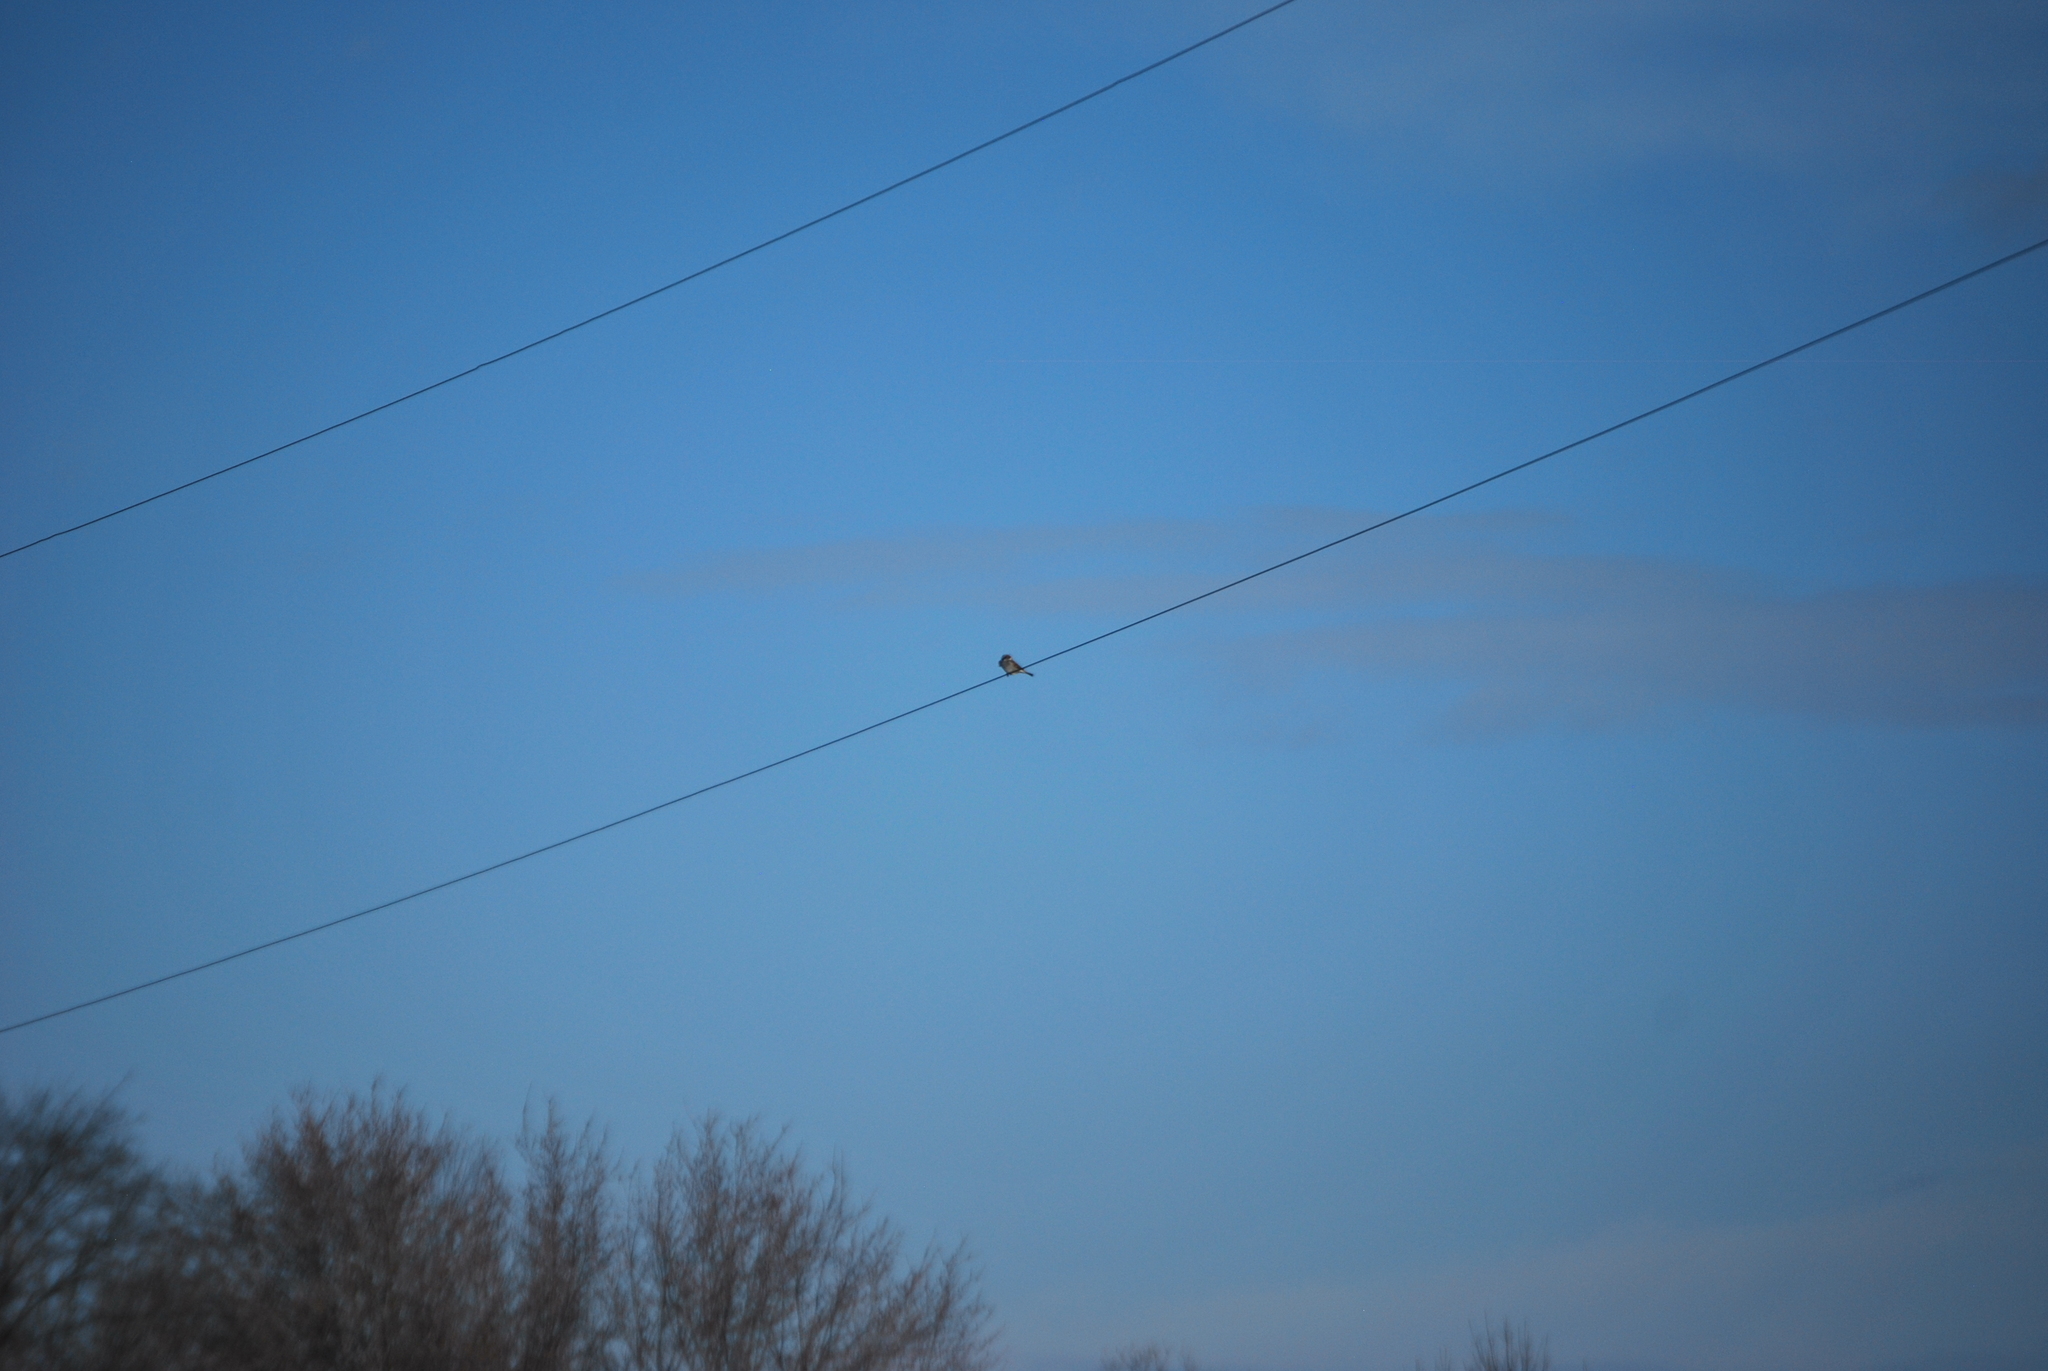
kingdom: Animalia
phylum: Chordata
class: Aves
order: Passeriformes
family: Passeridae
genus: Passer
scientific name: Passer domesticus
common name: House sparrow
